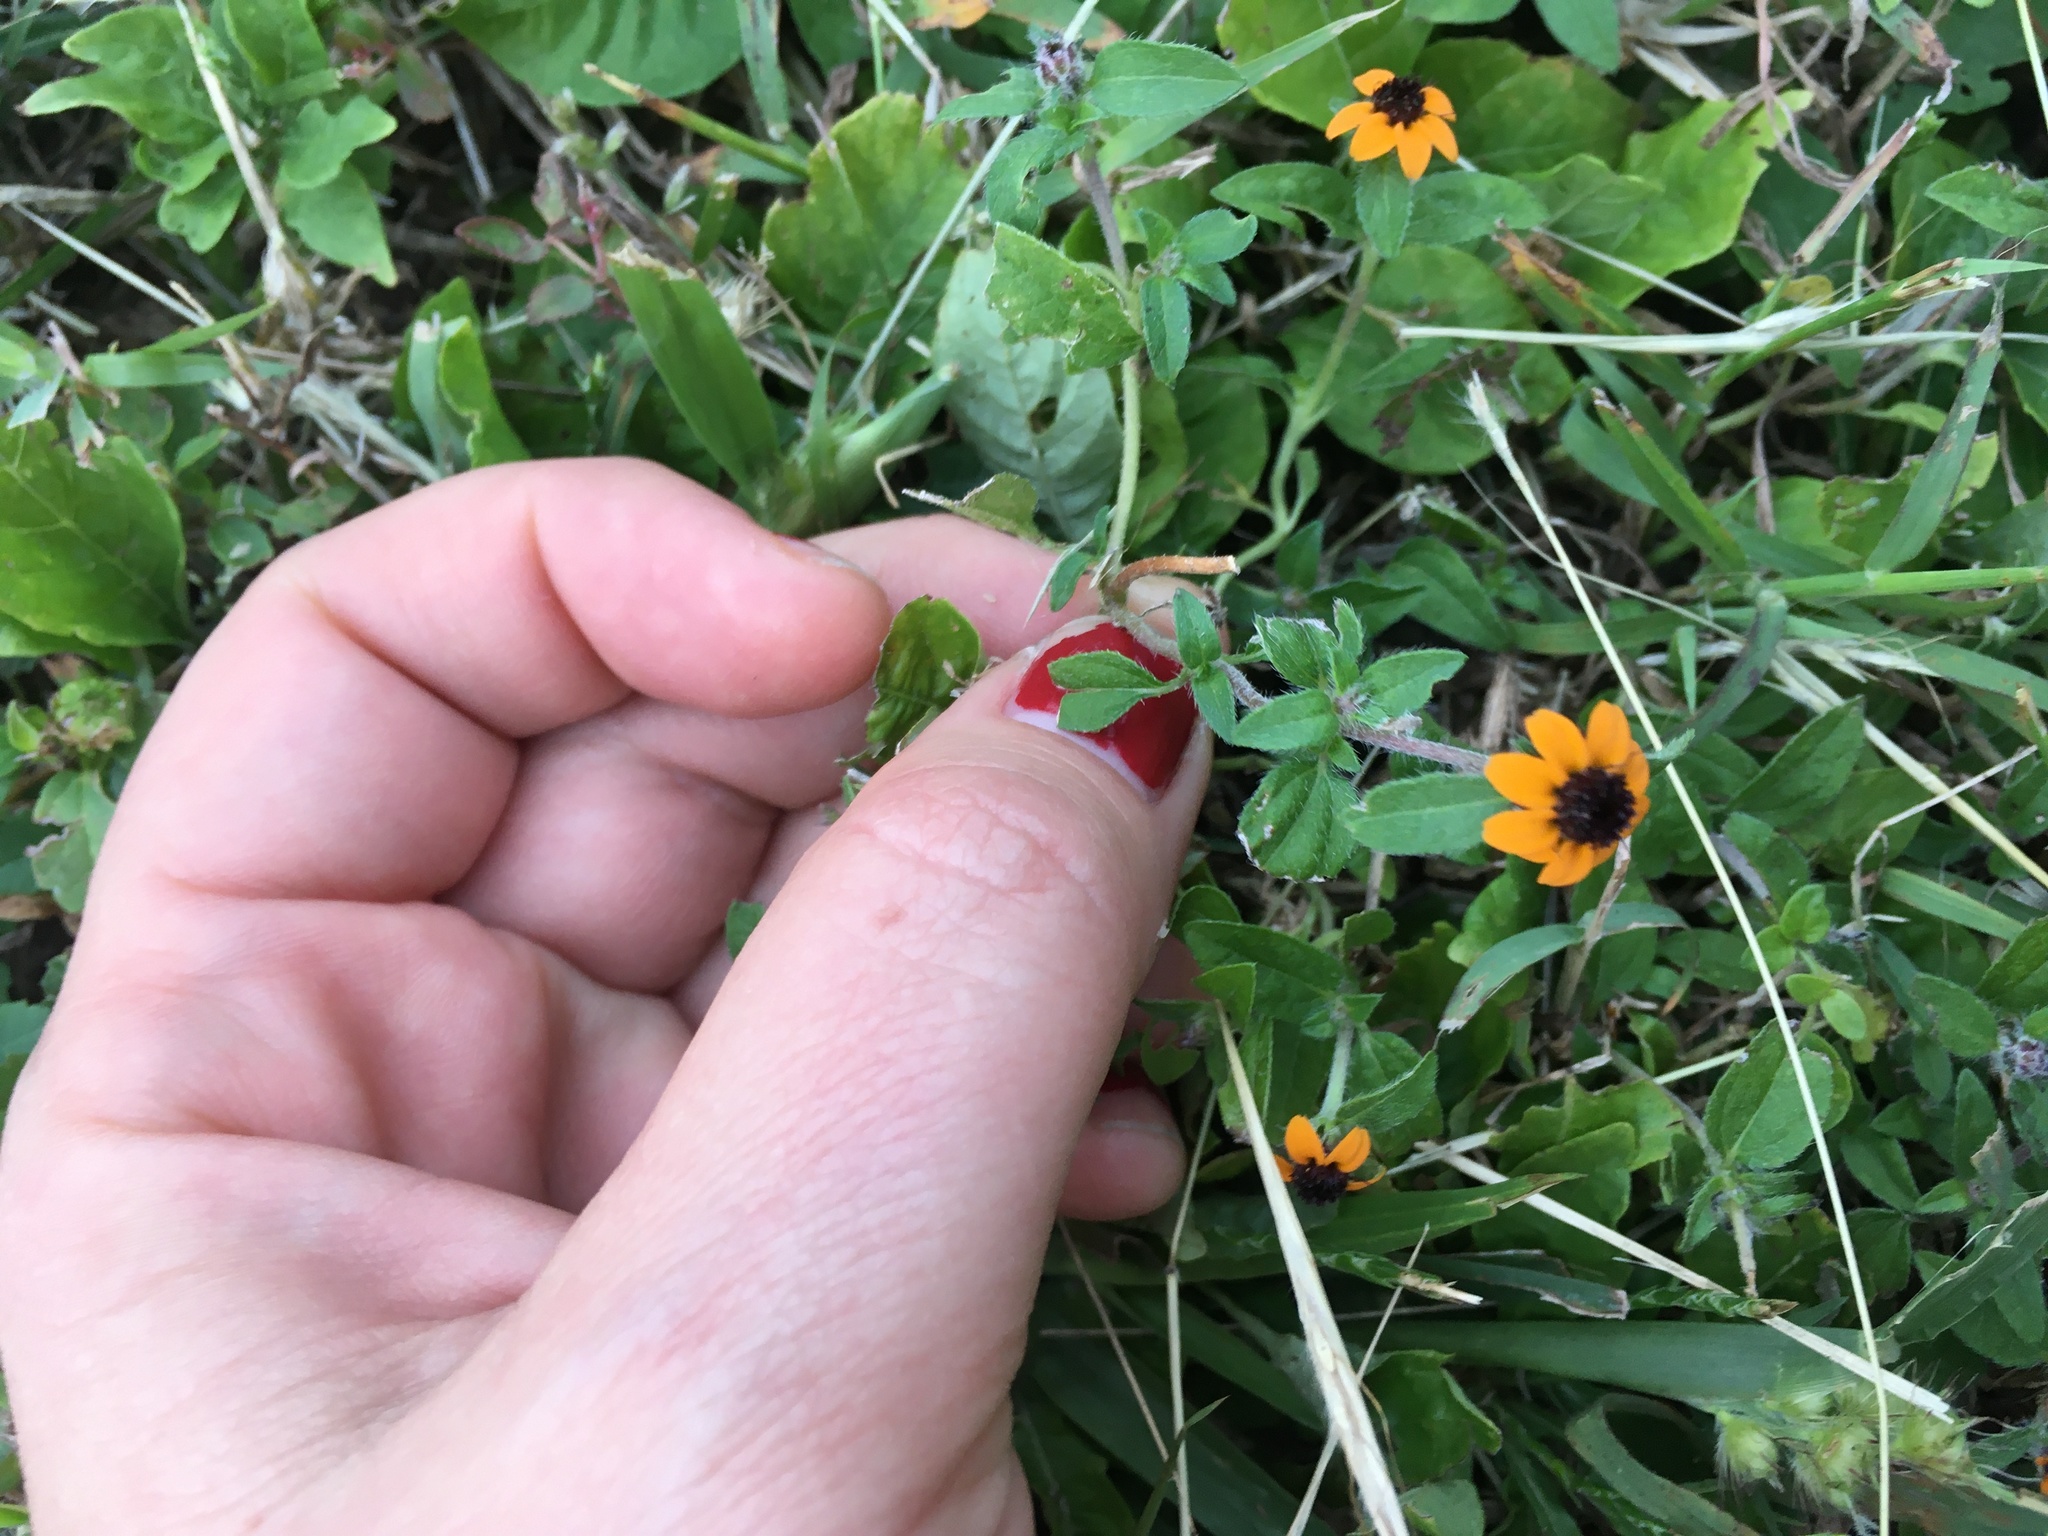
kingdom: Plantae
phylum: Tracheophyta
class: Magnoliopsida
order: Asterales
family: Asteraceae
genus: Sanvitalia
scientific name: Sanvitalia procumbens
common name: Mexican creeping zinnia
